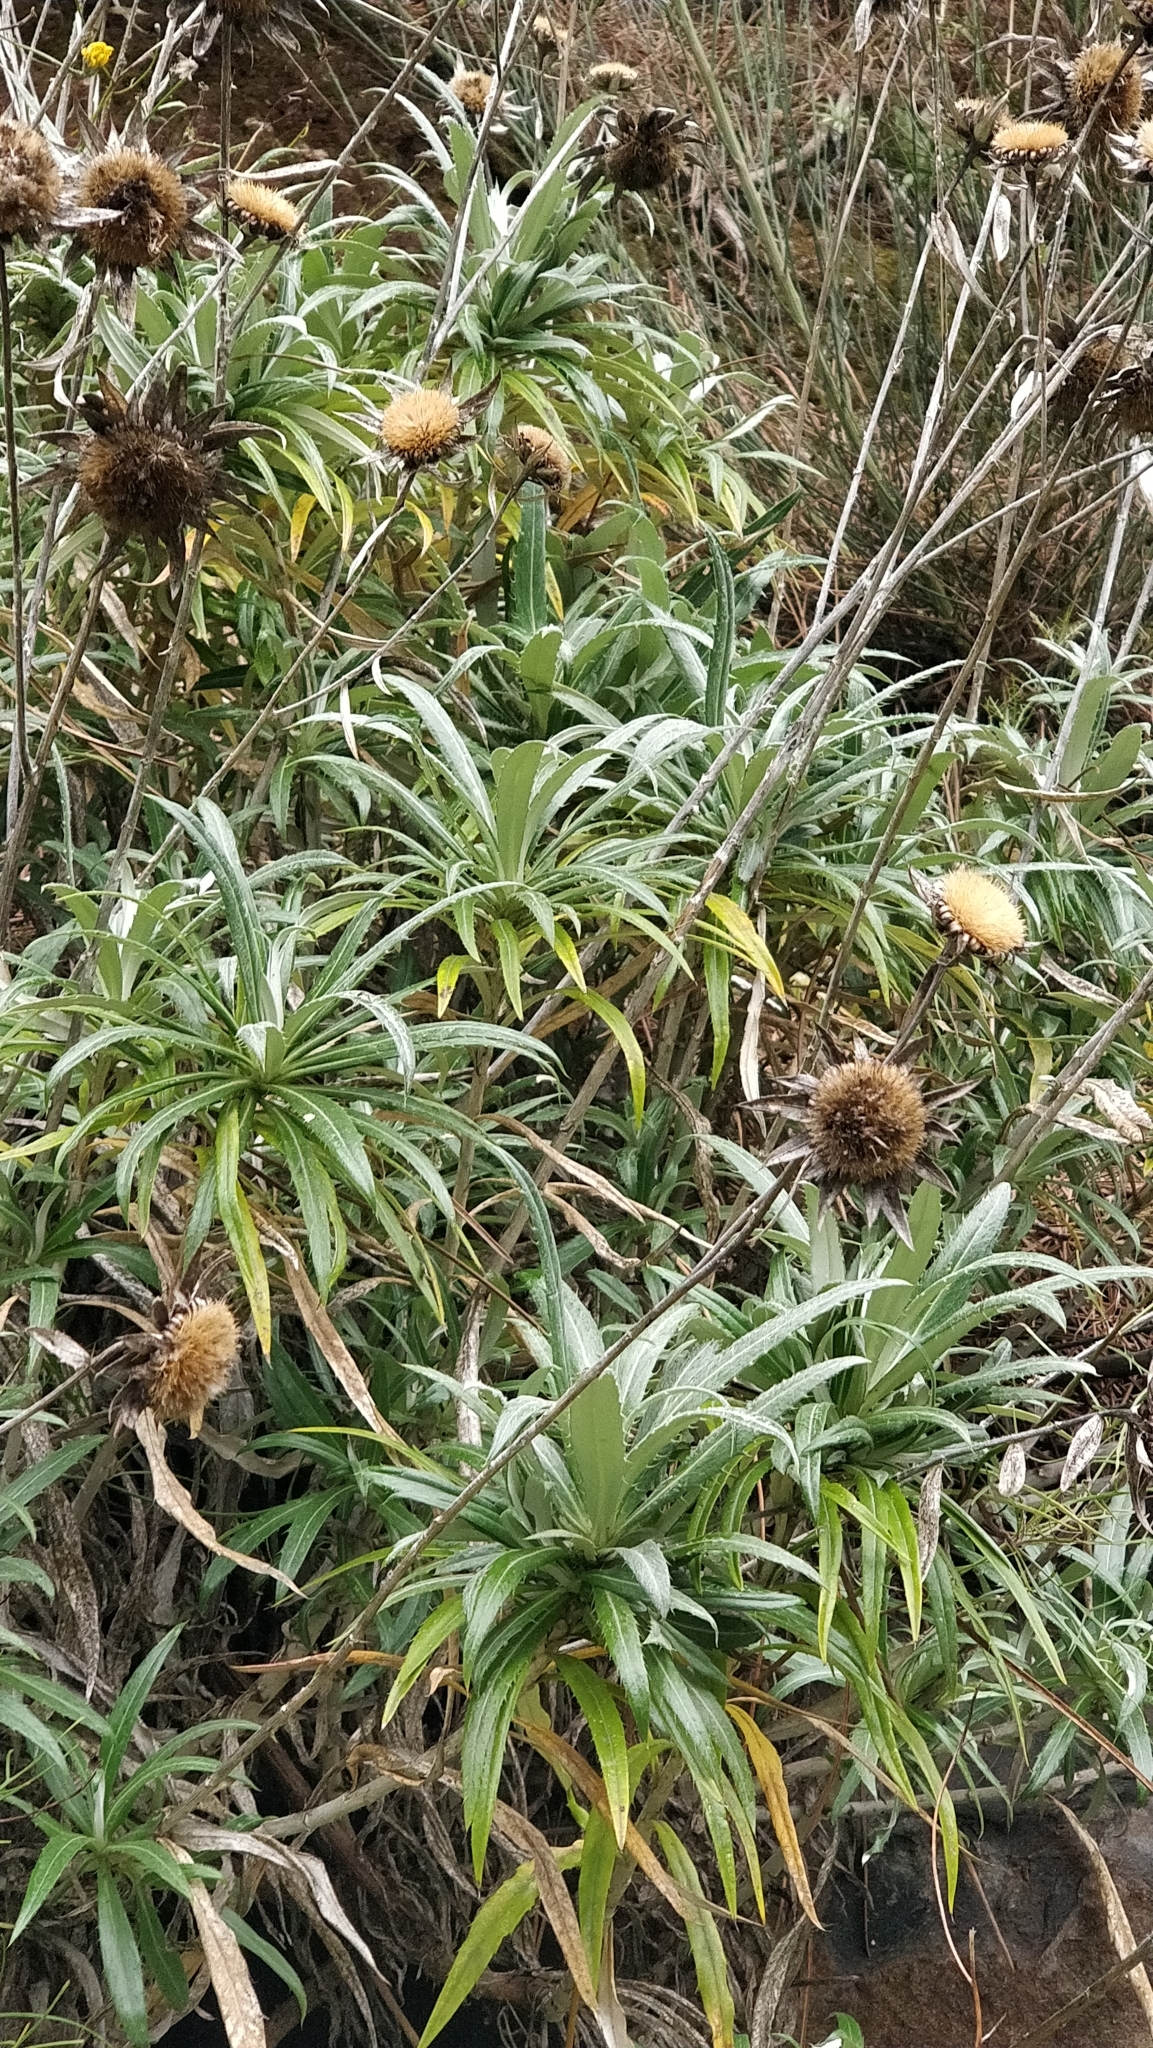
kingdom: Plantae
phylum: Tracheophyta
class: Magnoliopsida
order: Asterales
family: Asteraceae
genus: Carlina
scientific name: Carlina salicifolia
